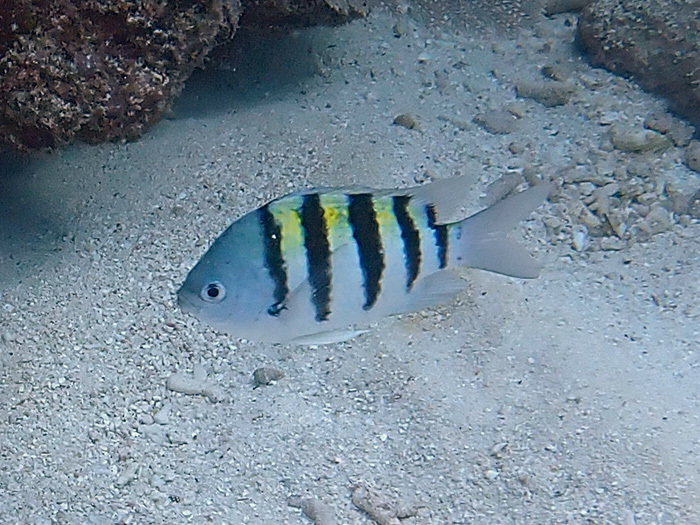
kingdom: Animalia
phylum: Chordata
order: Perciformes
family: Pomacentridae
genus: Abudefduf
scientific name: Abudefduf saxatilis
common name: Sergeant major
